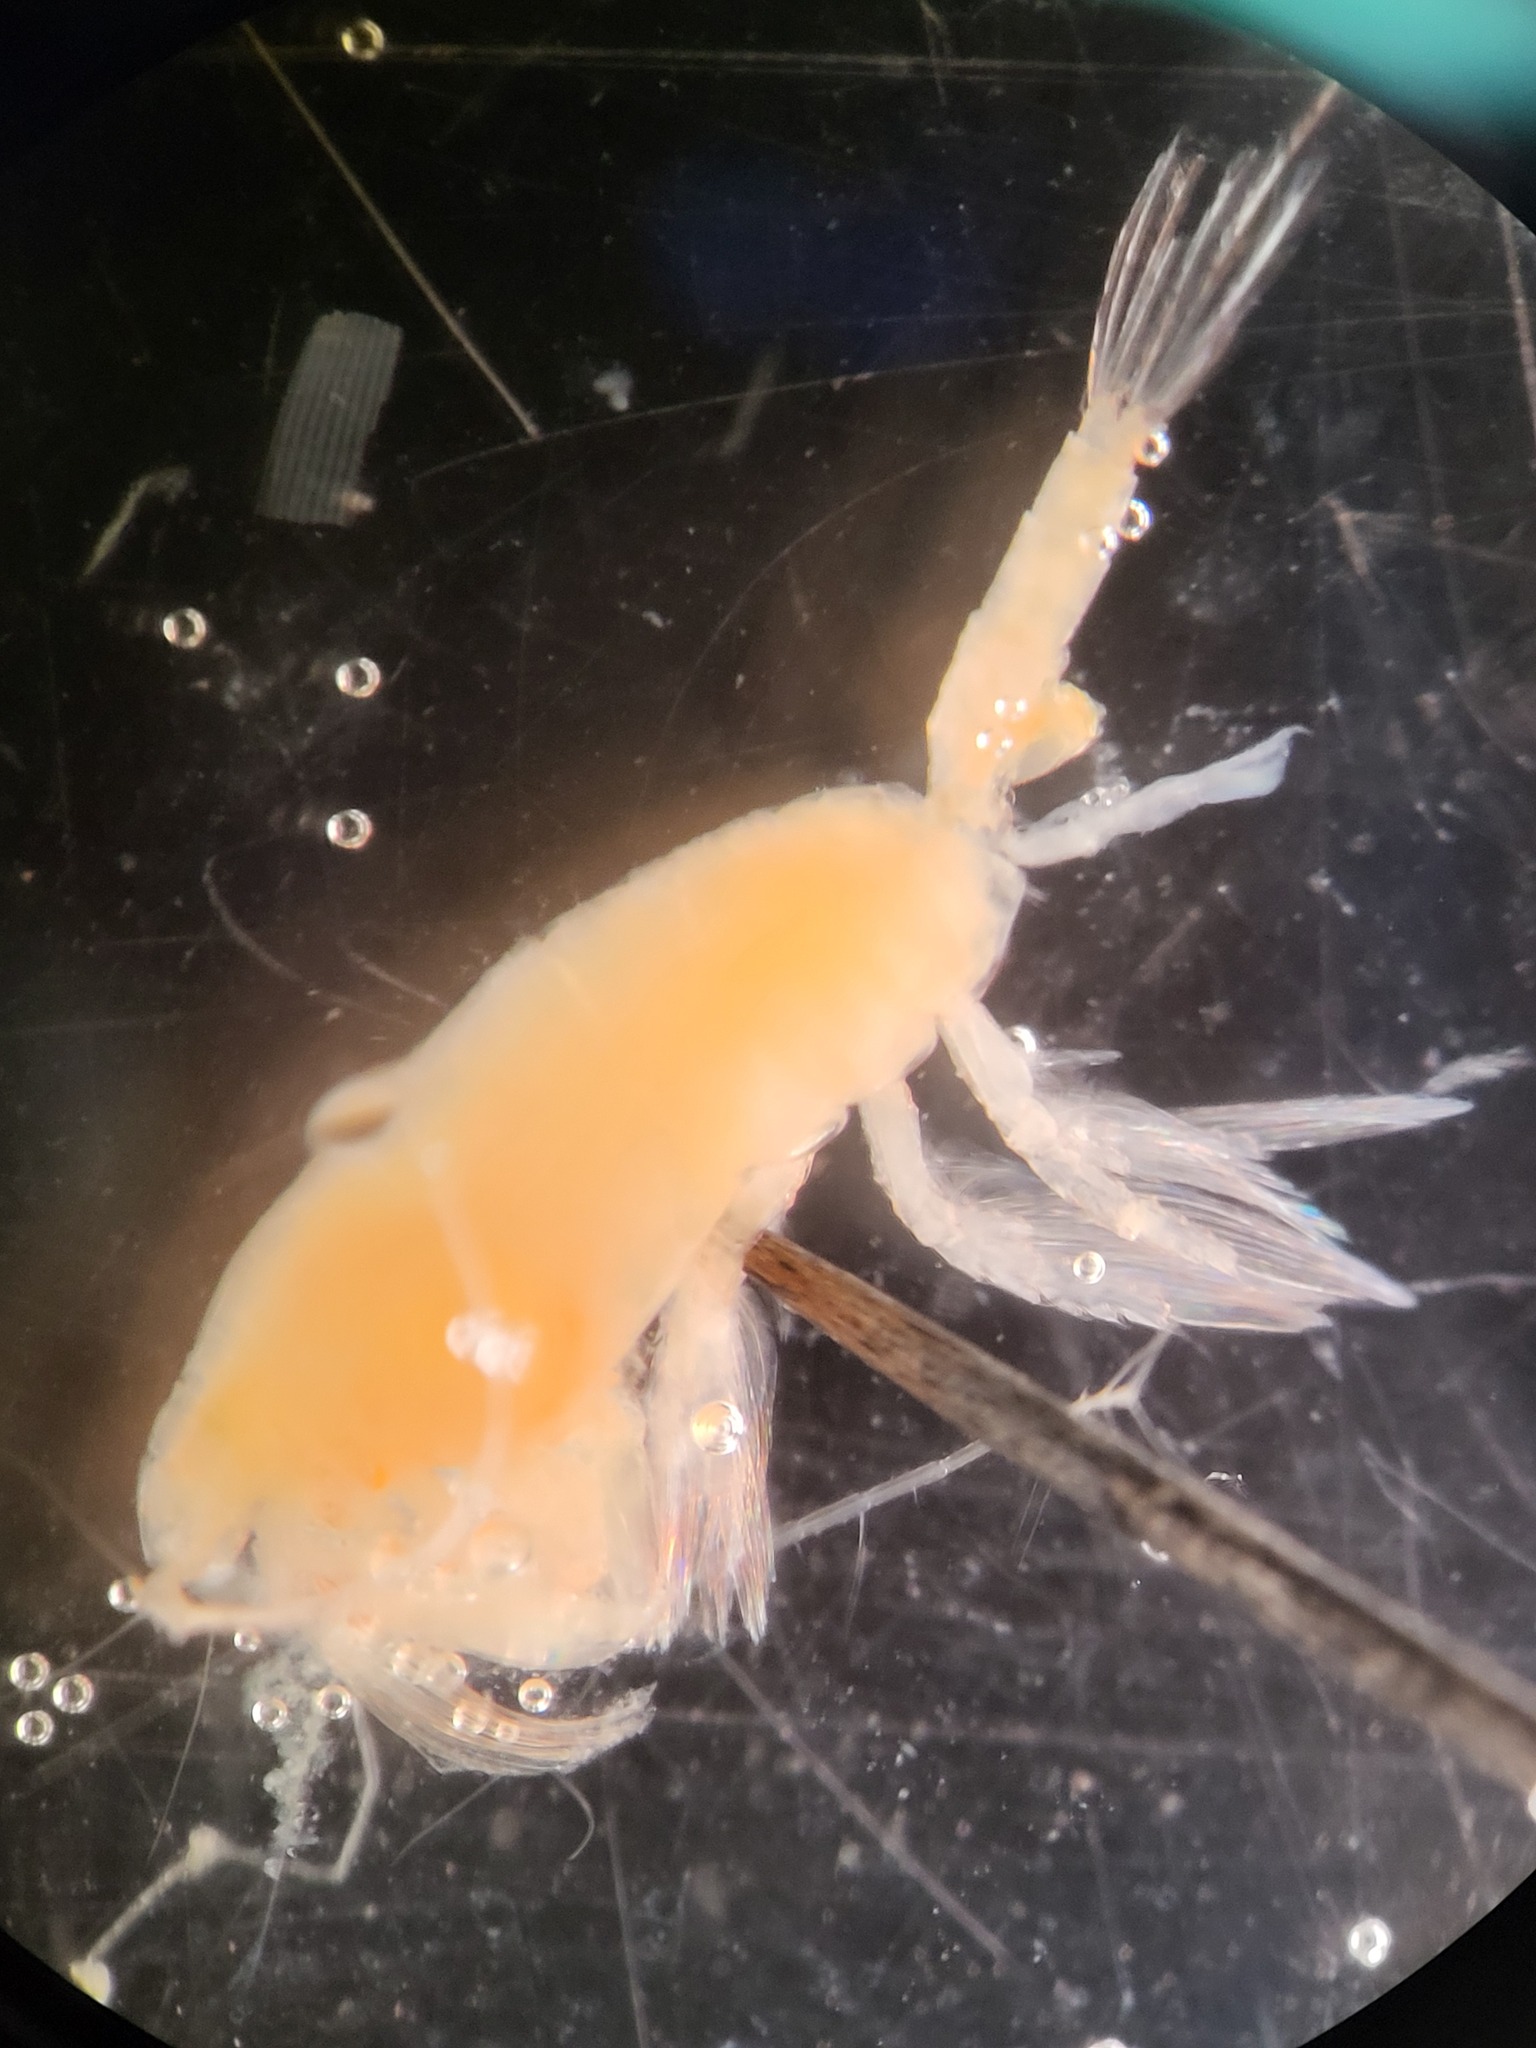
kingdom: Animalia
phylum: Arthropoda
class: Copepoda
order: Calanoida
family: Euchaetidae
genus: Paraeuchaeta
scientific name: Paraeuchaeta glacialis
